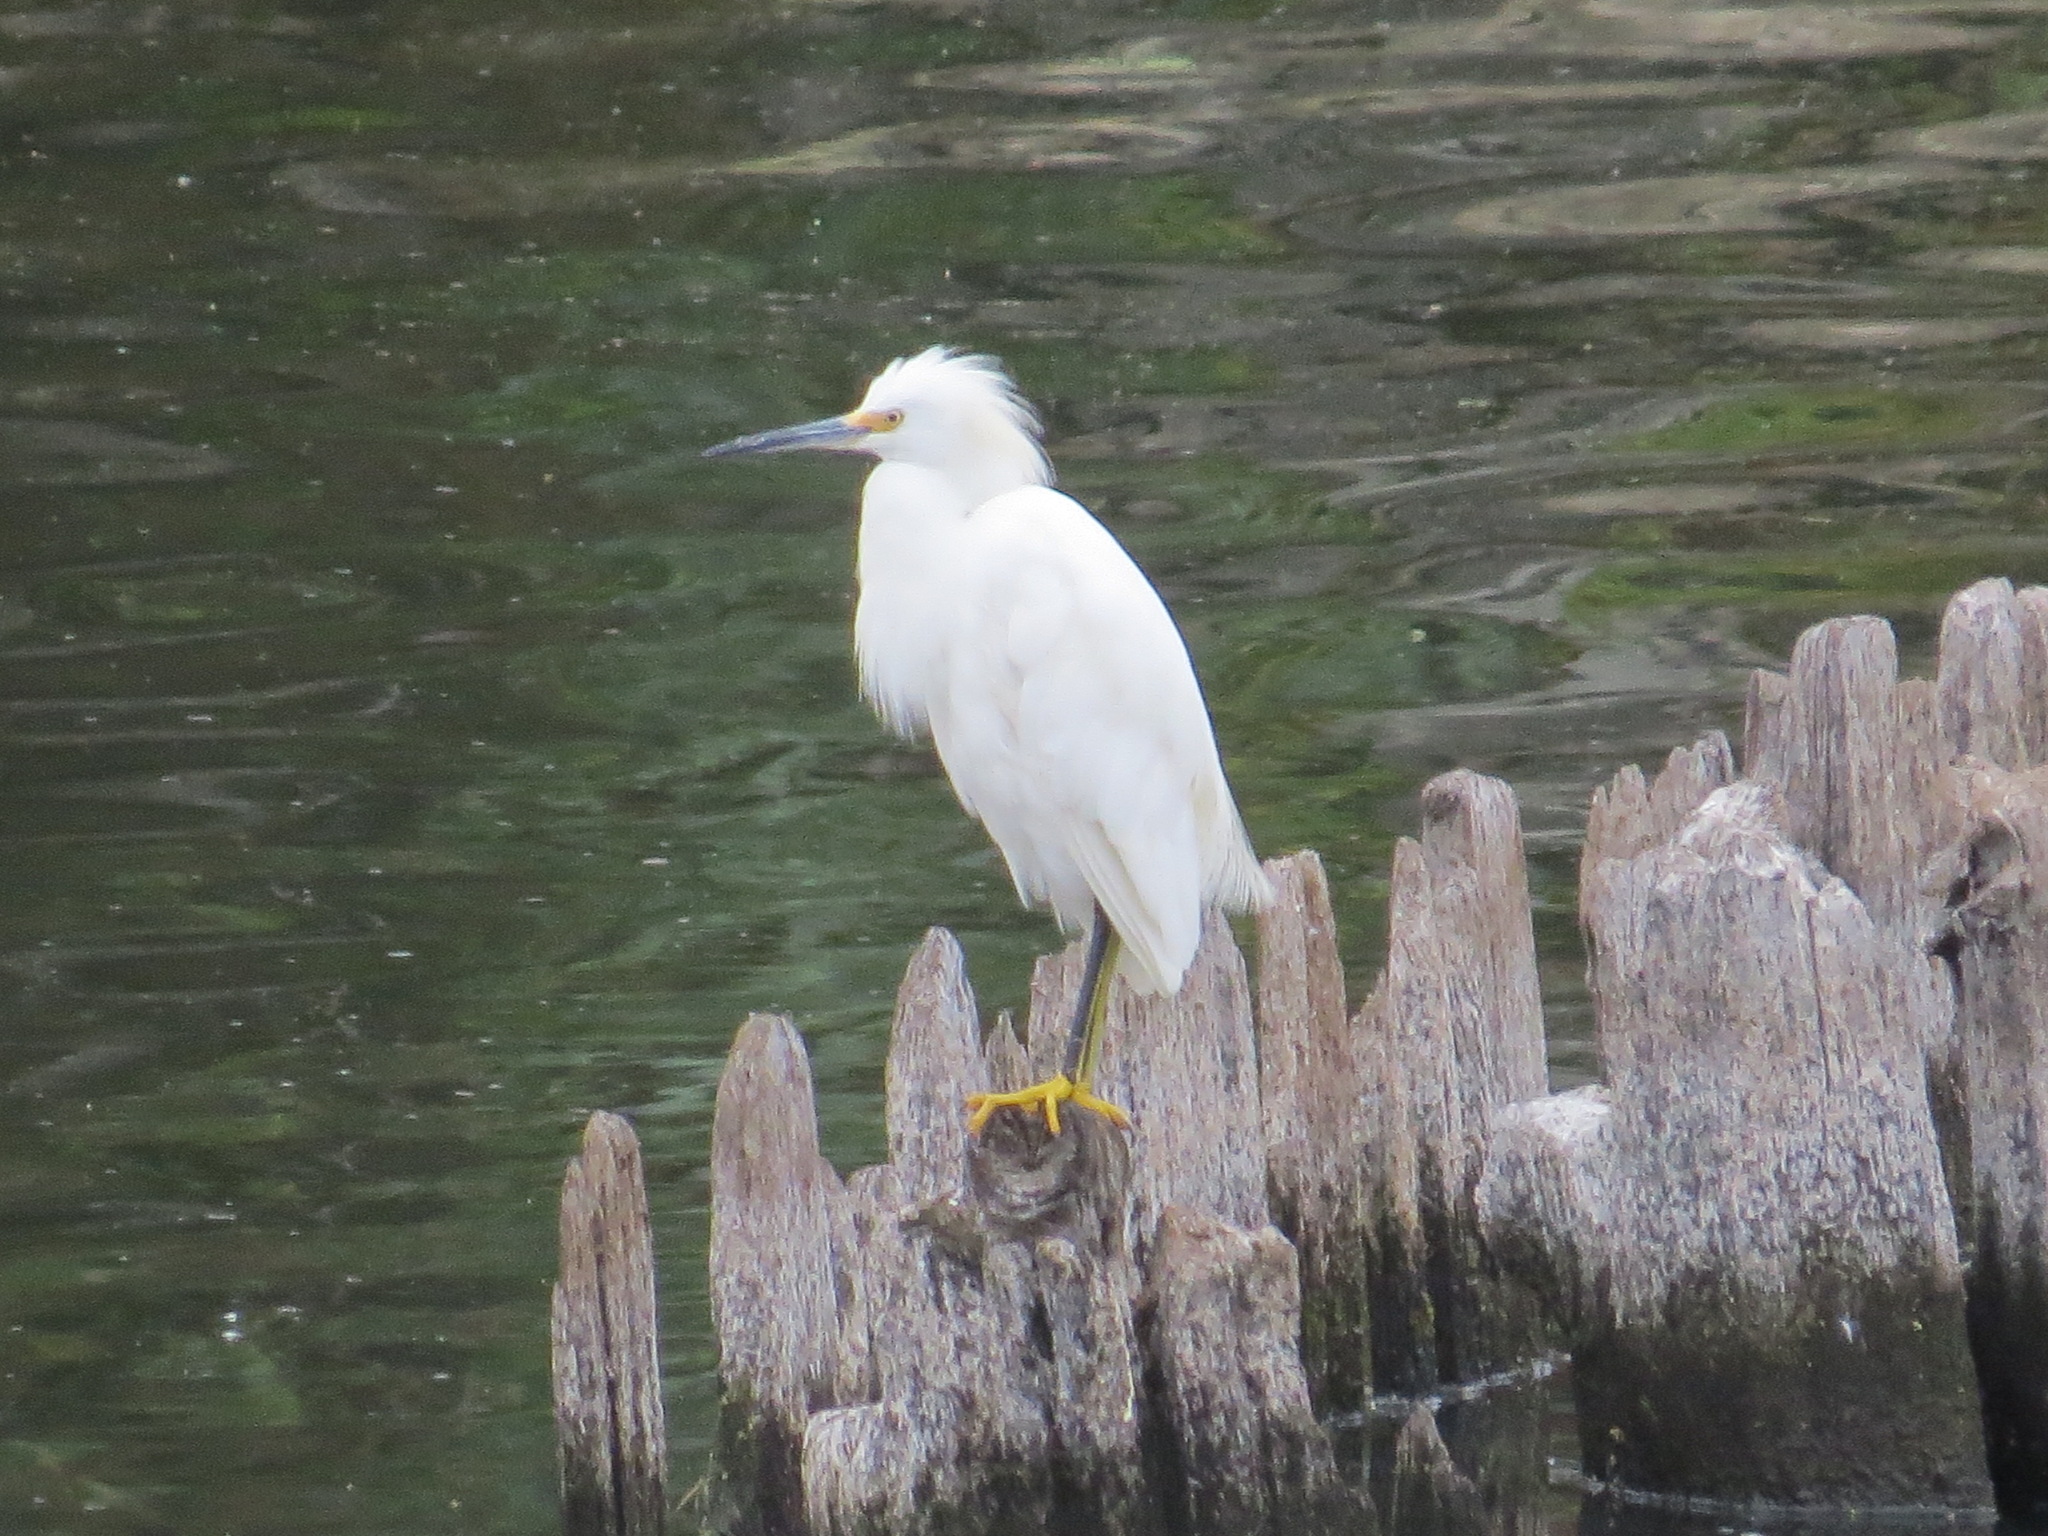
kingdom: Animalia
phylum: Chordata
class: Aves
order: Pelecaniformes
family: Ardeidae
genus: Egretta
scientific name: Egretta thula
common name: Snowy egret
